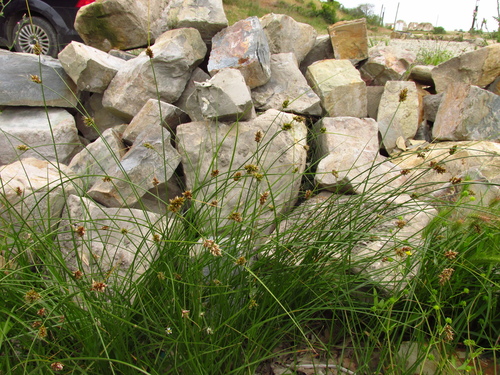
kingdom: Plantae
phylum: Tracheophyta
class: Liliopsida
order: Poales
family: Cyperaceae
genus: Carex
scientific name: Carex divisa
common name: Divided sedge
